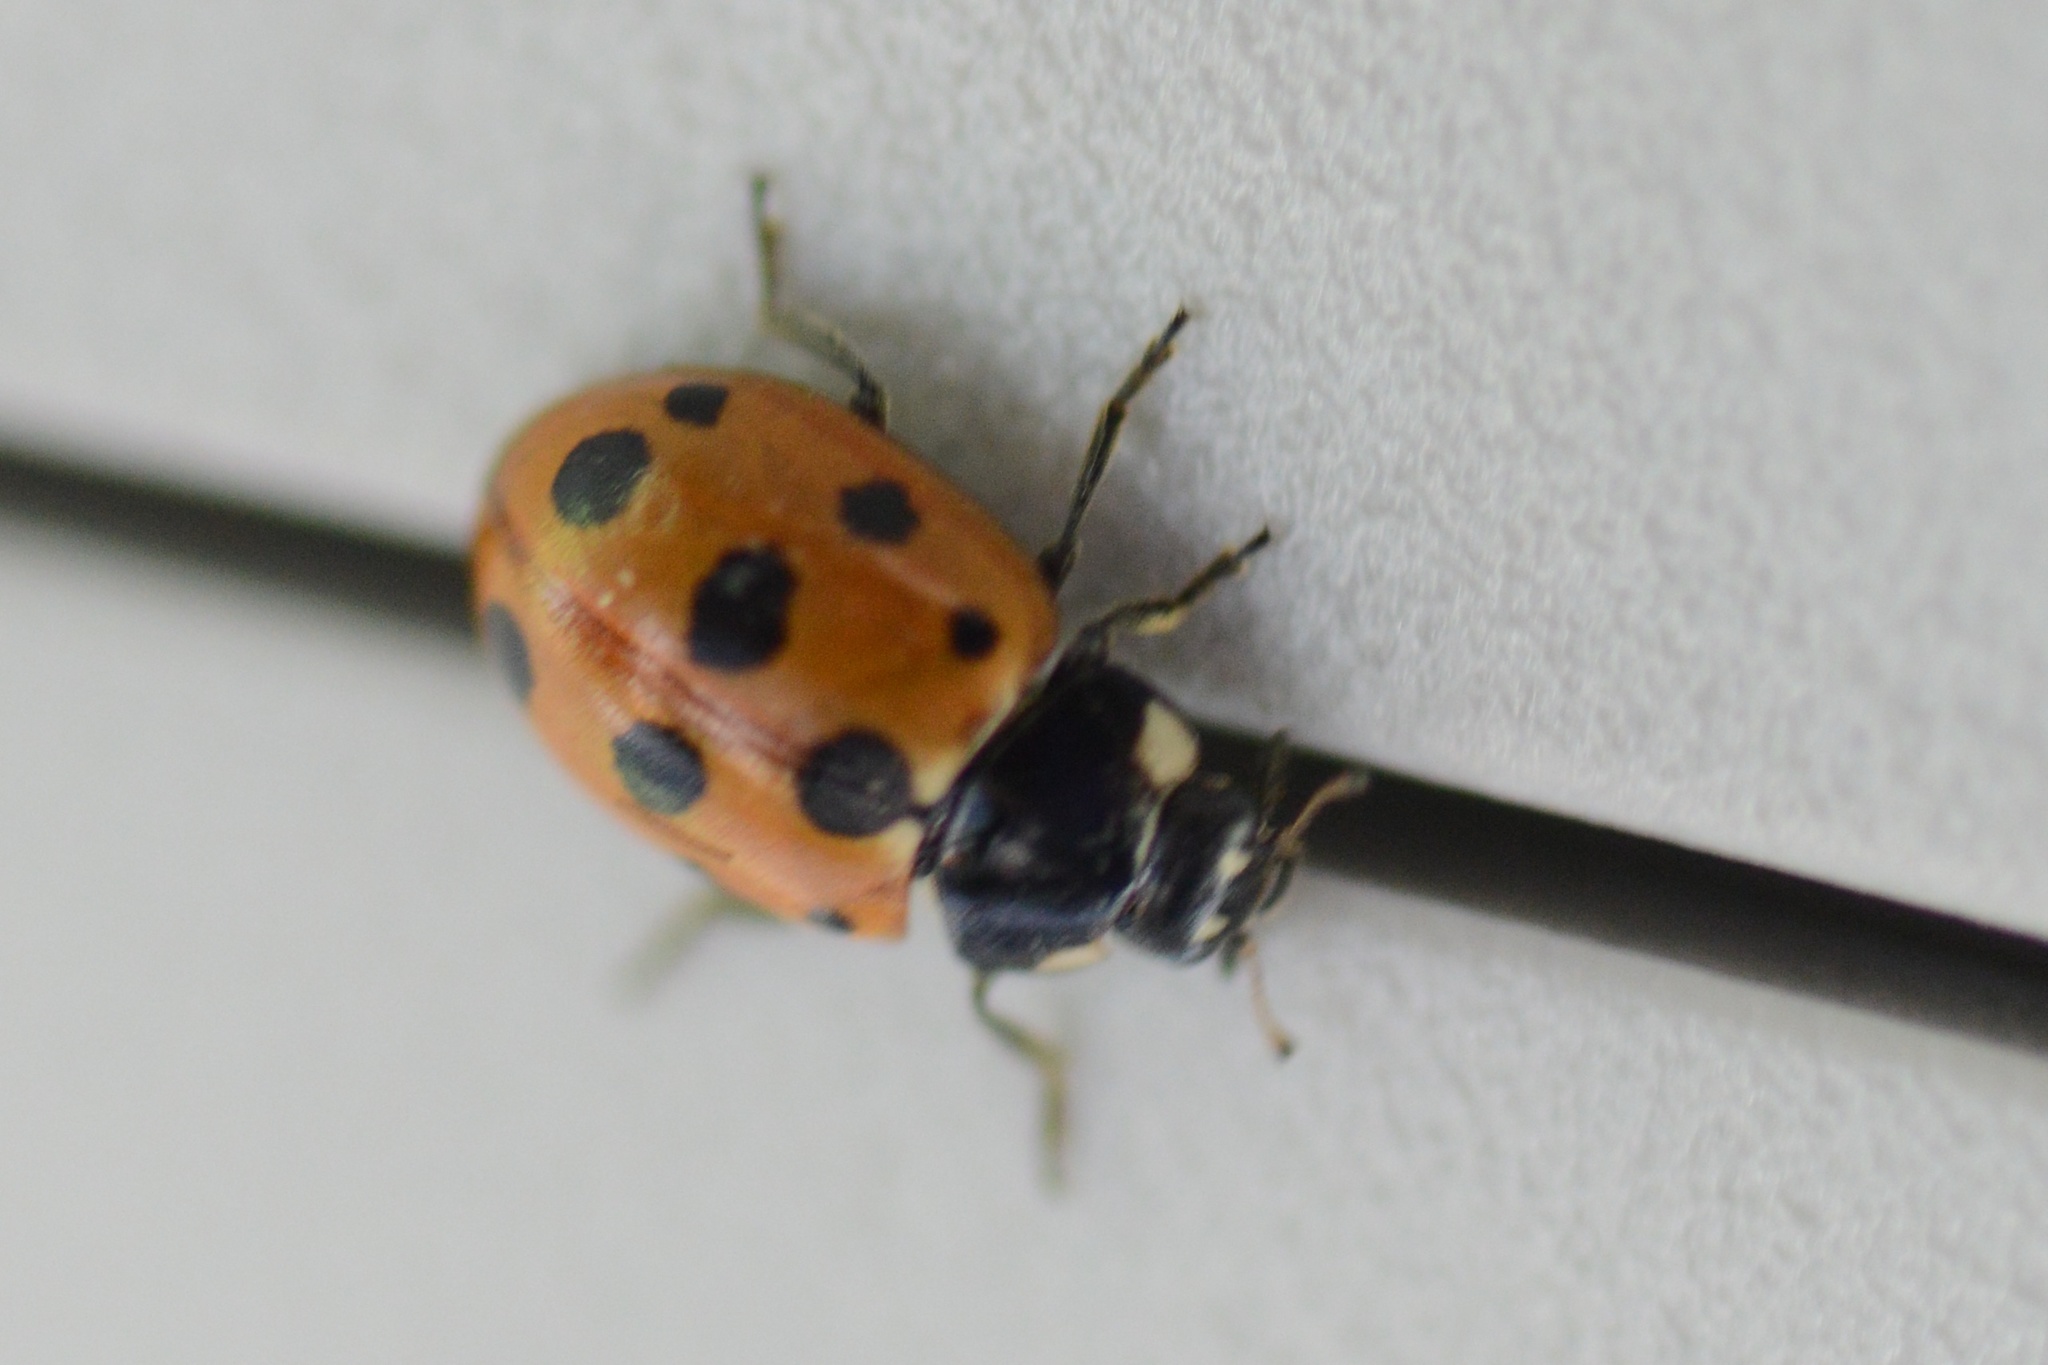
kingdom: Animalia
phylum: Arthropoda
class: Insecta
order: Coleoptera
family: Coccinellidae
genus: Coccinella
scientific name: Coccinella undecimpunctata
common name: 11-spot ladybird
